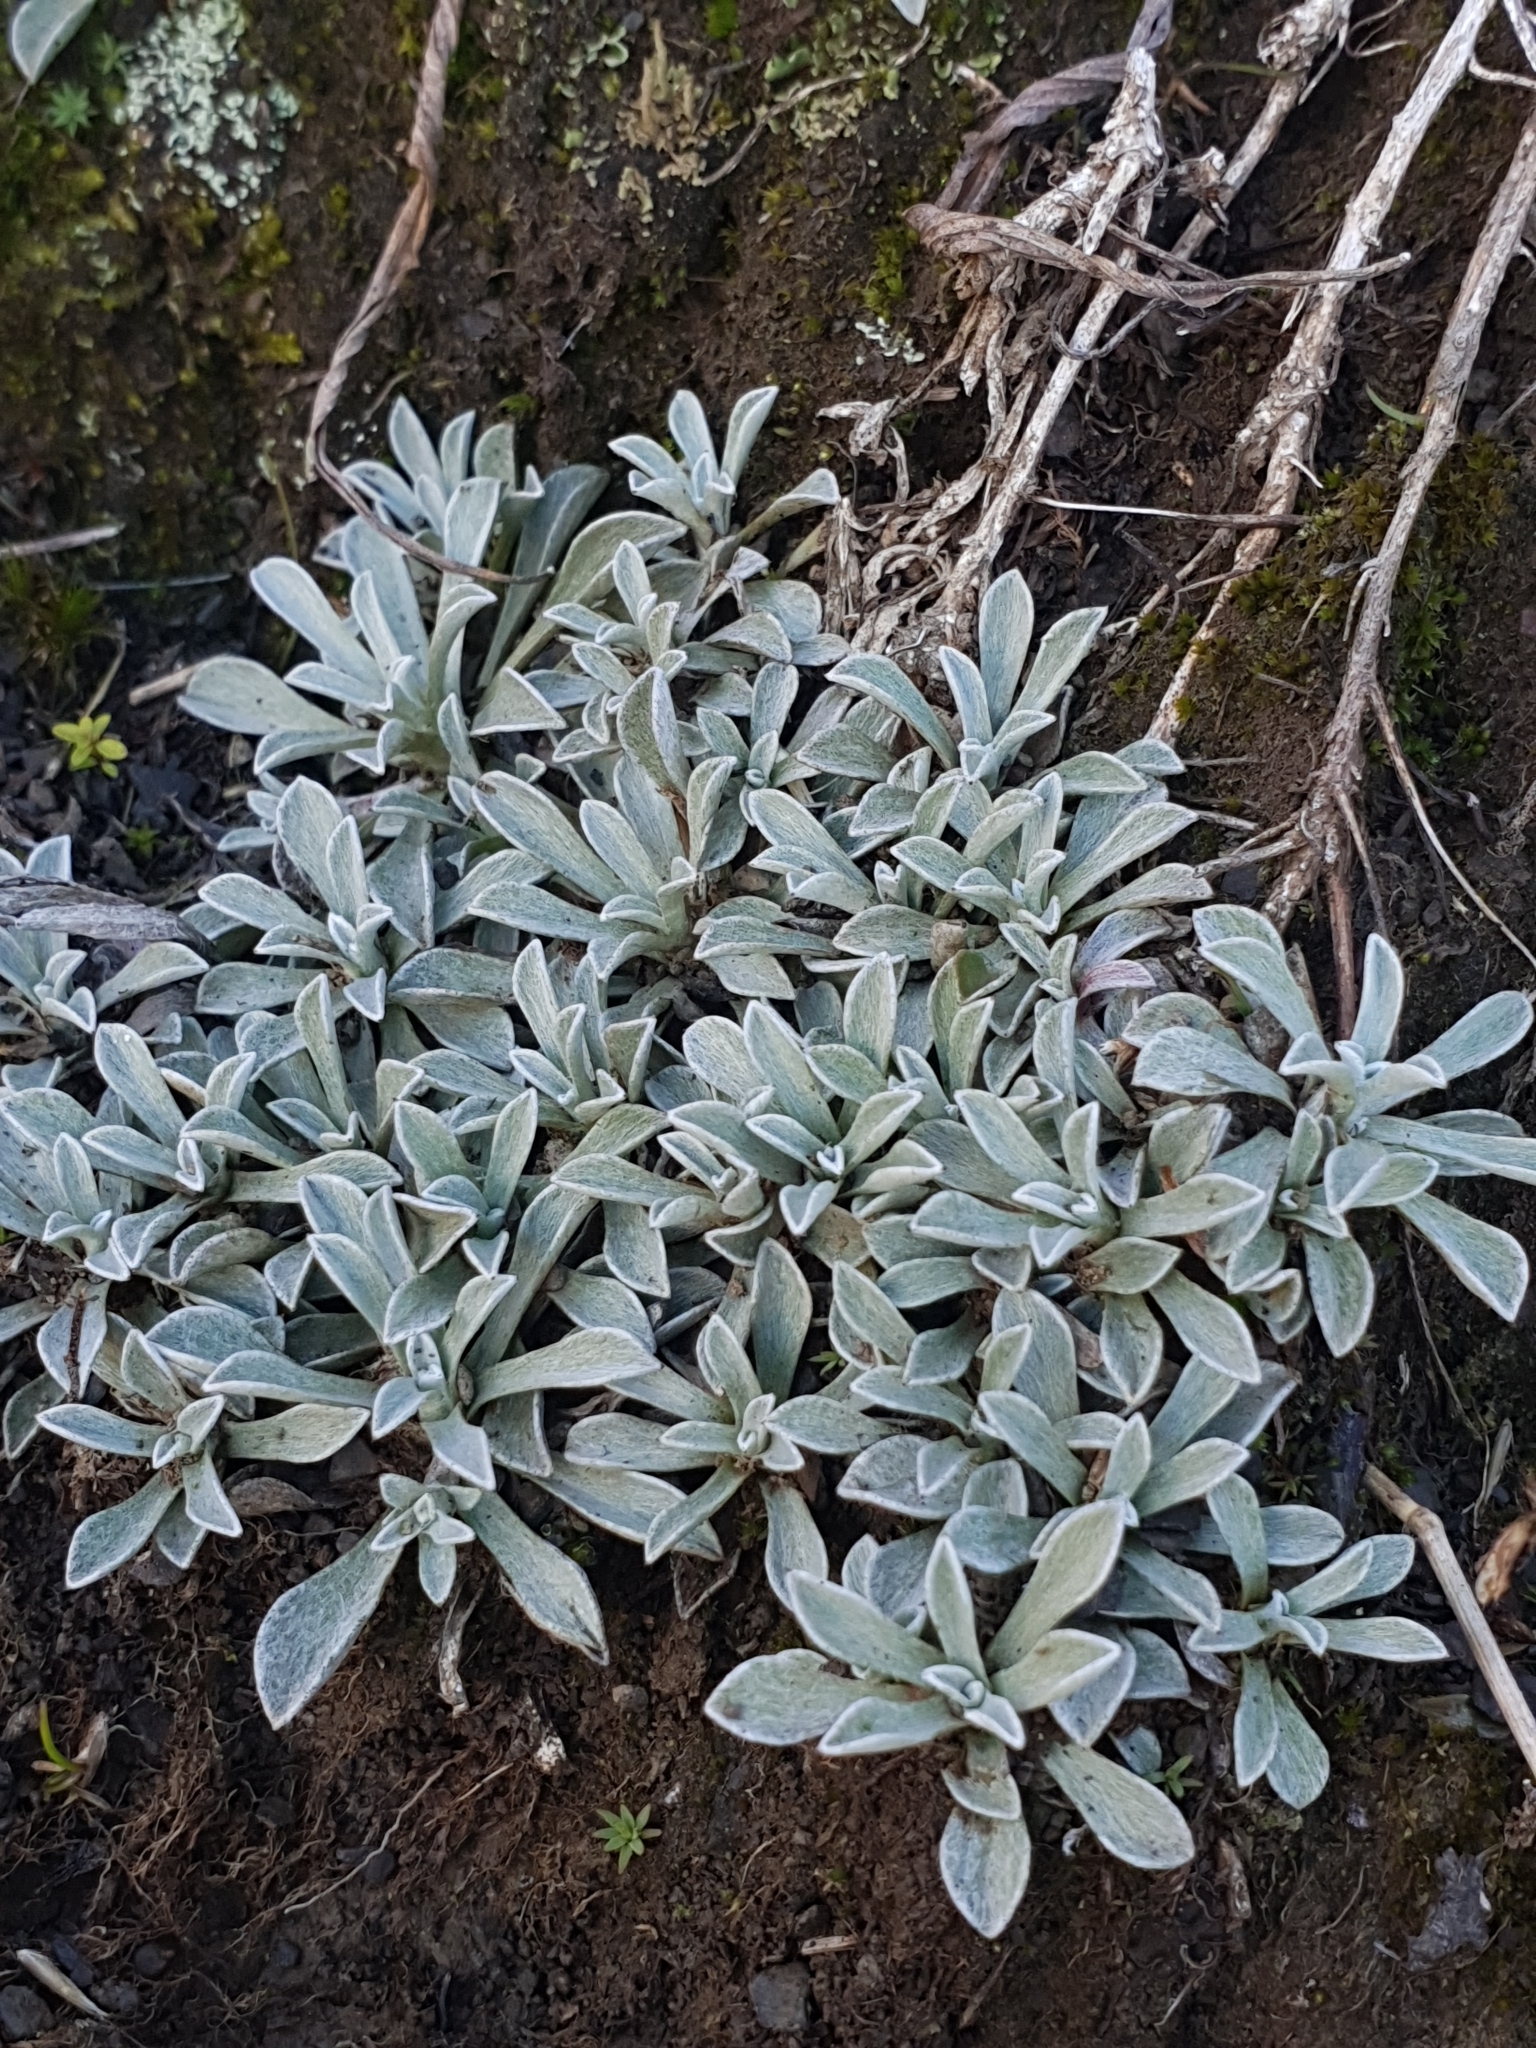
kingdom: Plantae
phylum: Tracheophyta
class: Magnoliopsida
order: Asterales
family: Asteraceae
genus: Antennaria
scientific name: Antennaria caucasica
